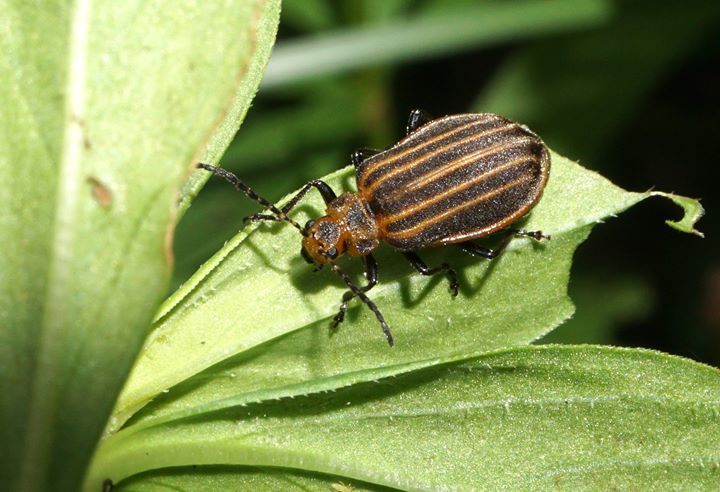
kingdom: Animalia
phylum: Arthropoda
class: Insecta
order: Coleoptera
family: Chrysomelidae
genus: Neolochmaea
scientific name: Neolochmaea dilatipennis
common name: Skeletonizing leaf beetle
